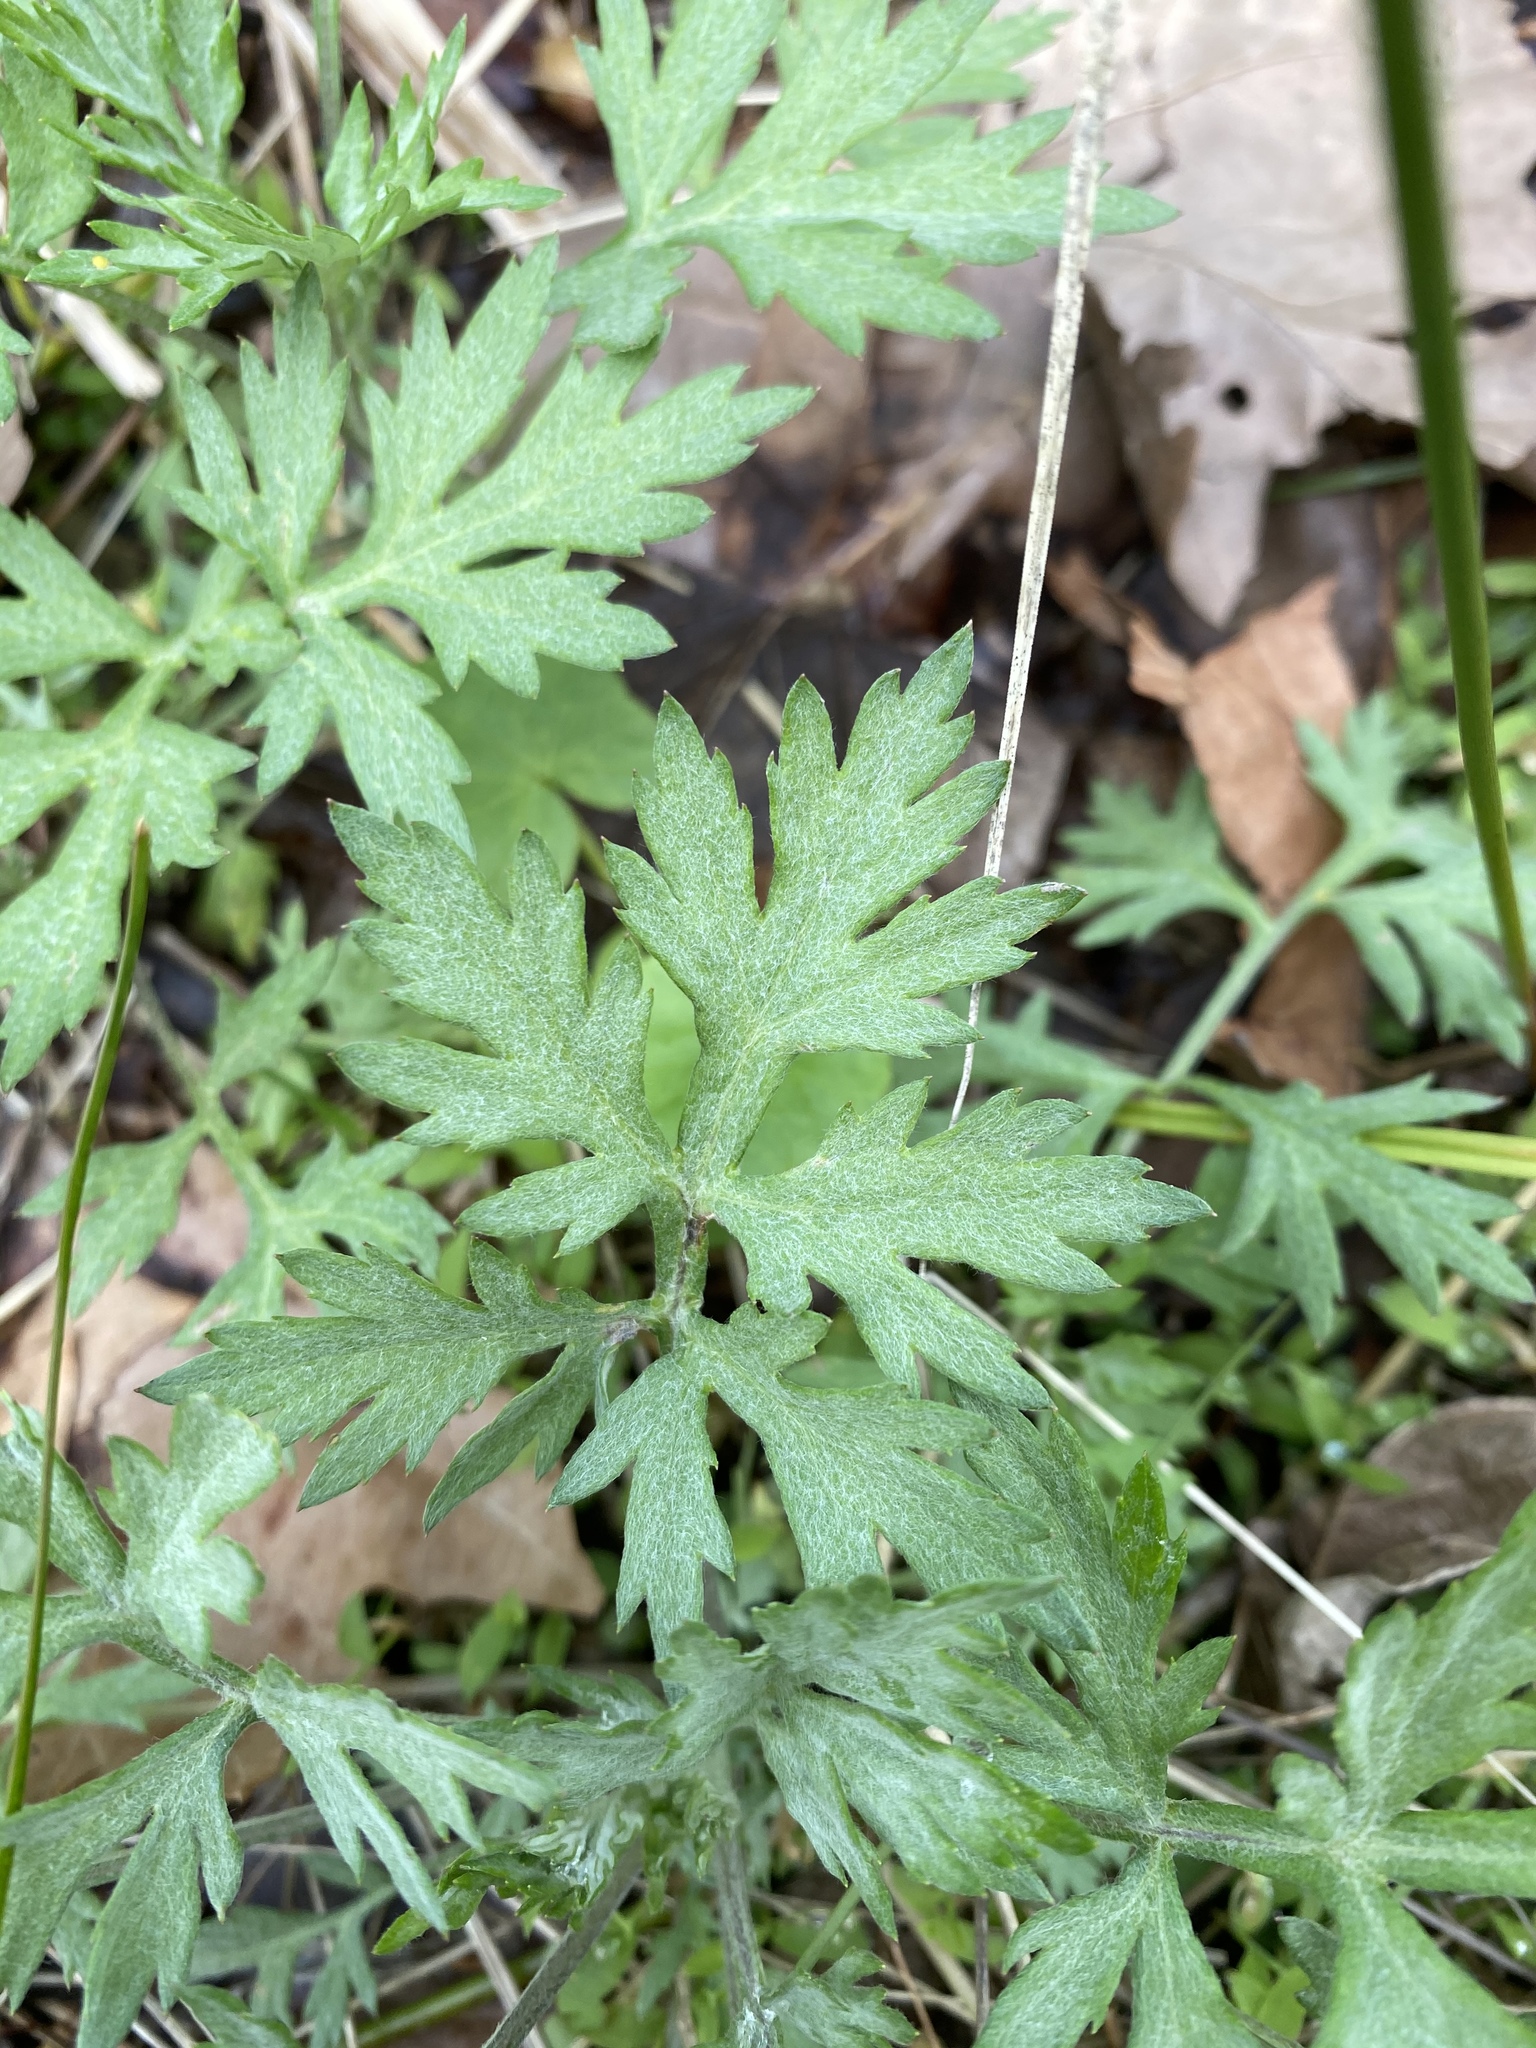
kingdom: Plantae
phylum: Tracheophyta
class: Magnoliopsida
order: Asterales
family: Asteraceae
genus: Artemisia
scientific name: Artemisia vulgaris
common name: Mugwort
